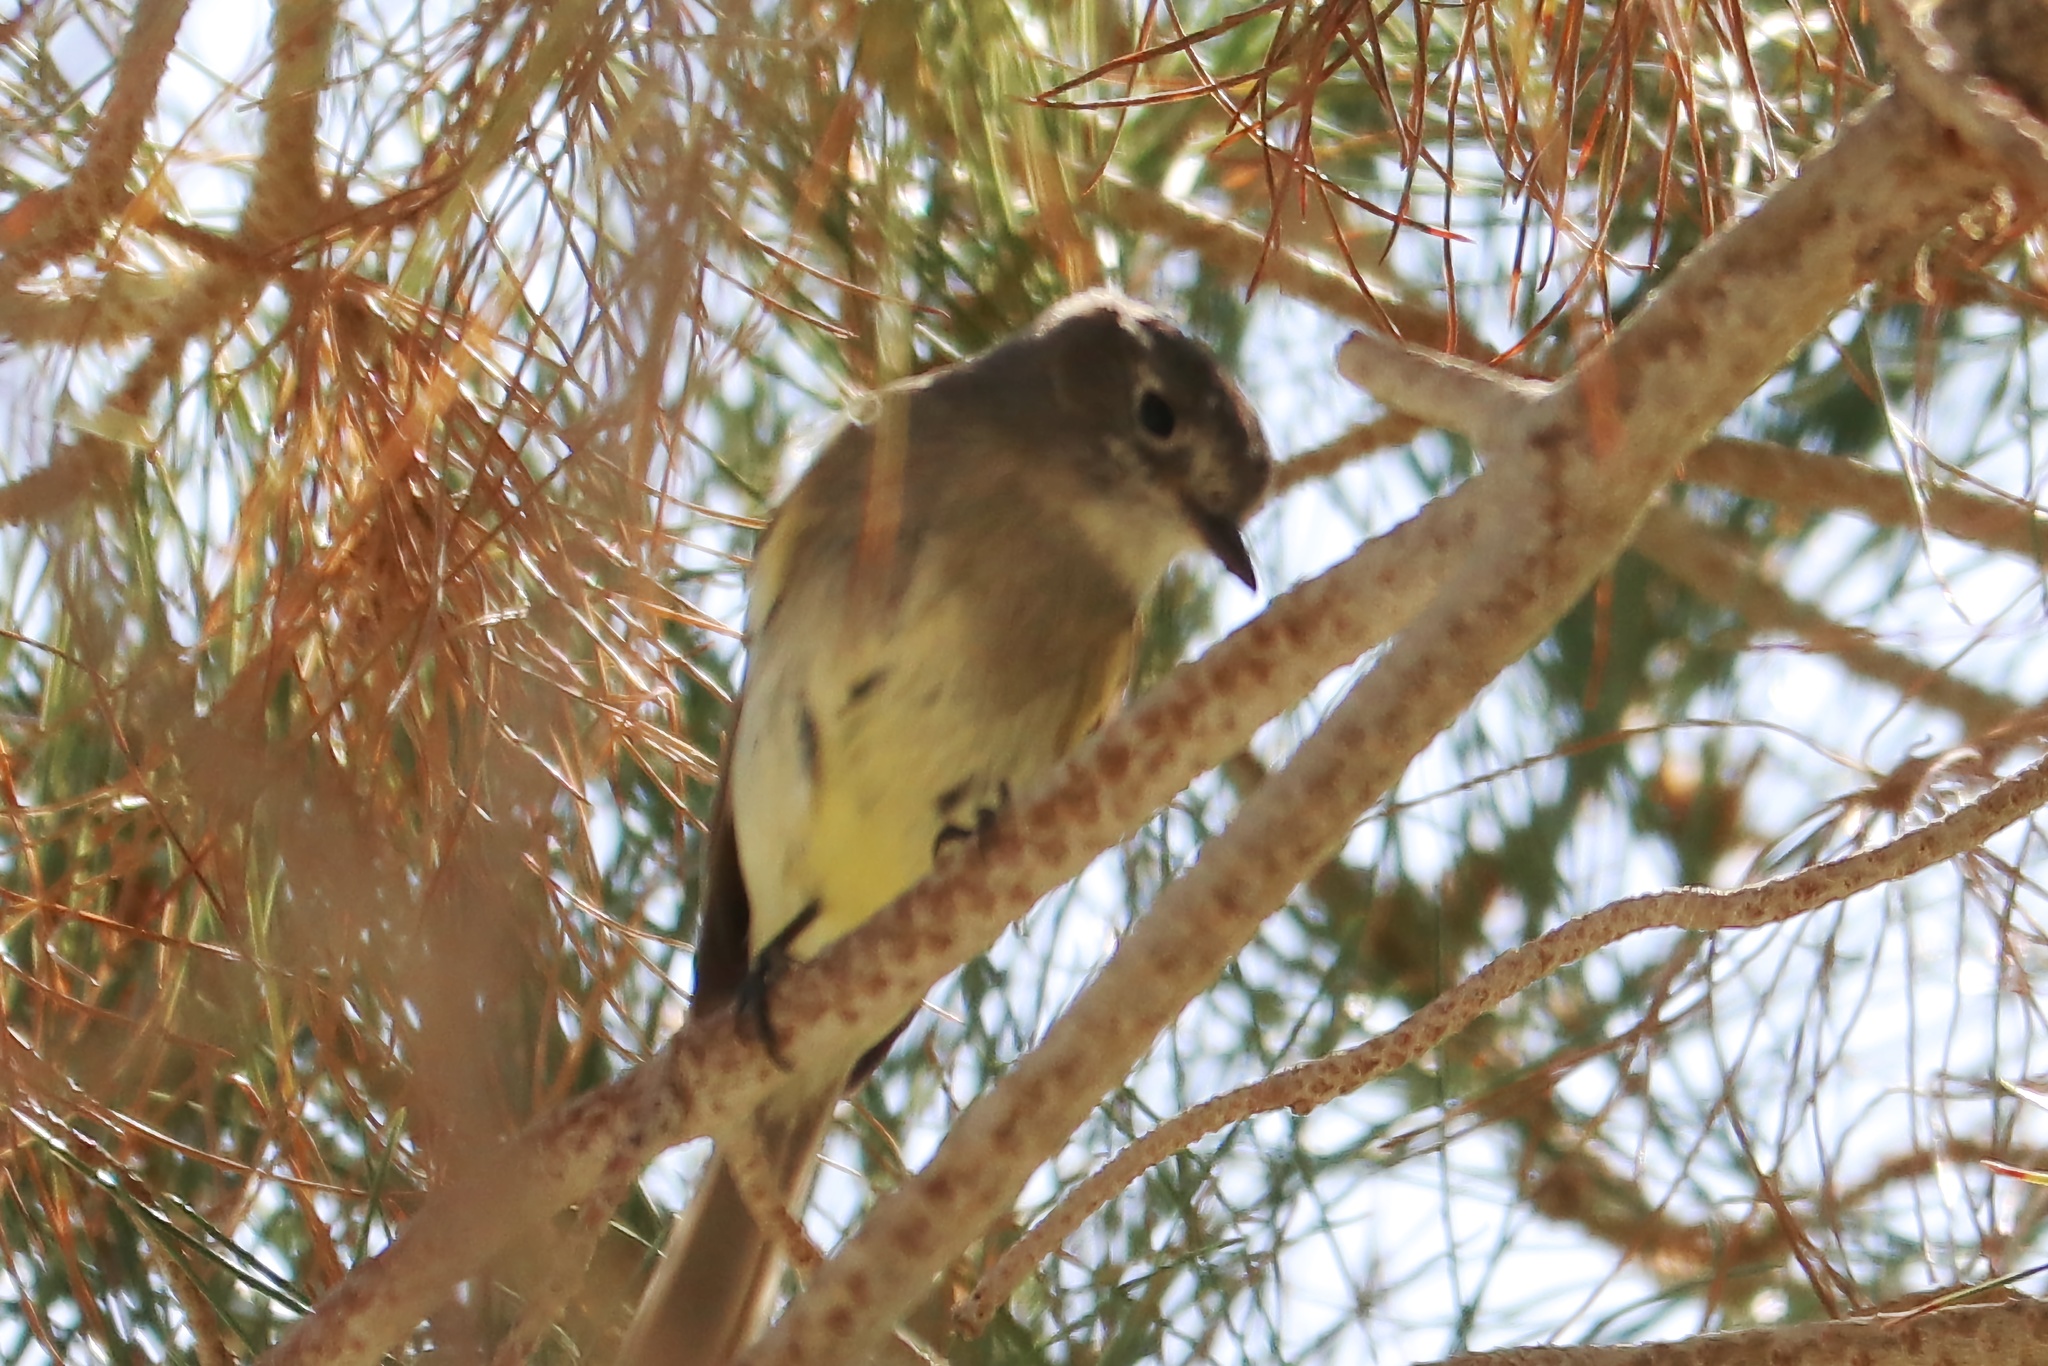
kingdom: Animalia
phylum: Chordata
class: Aves
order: Passeriformes
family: Tyrannidae
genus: Empidonax
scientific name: Empidonax
